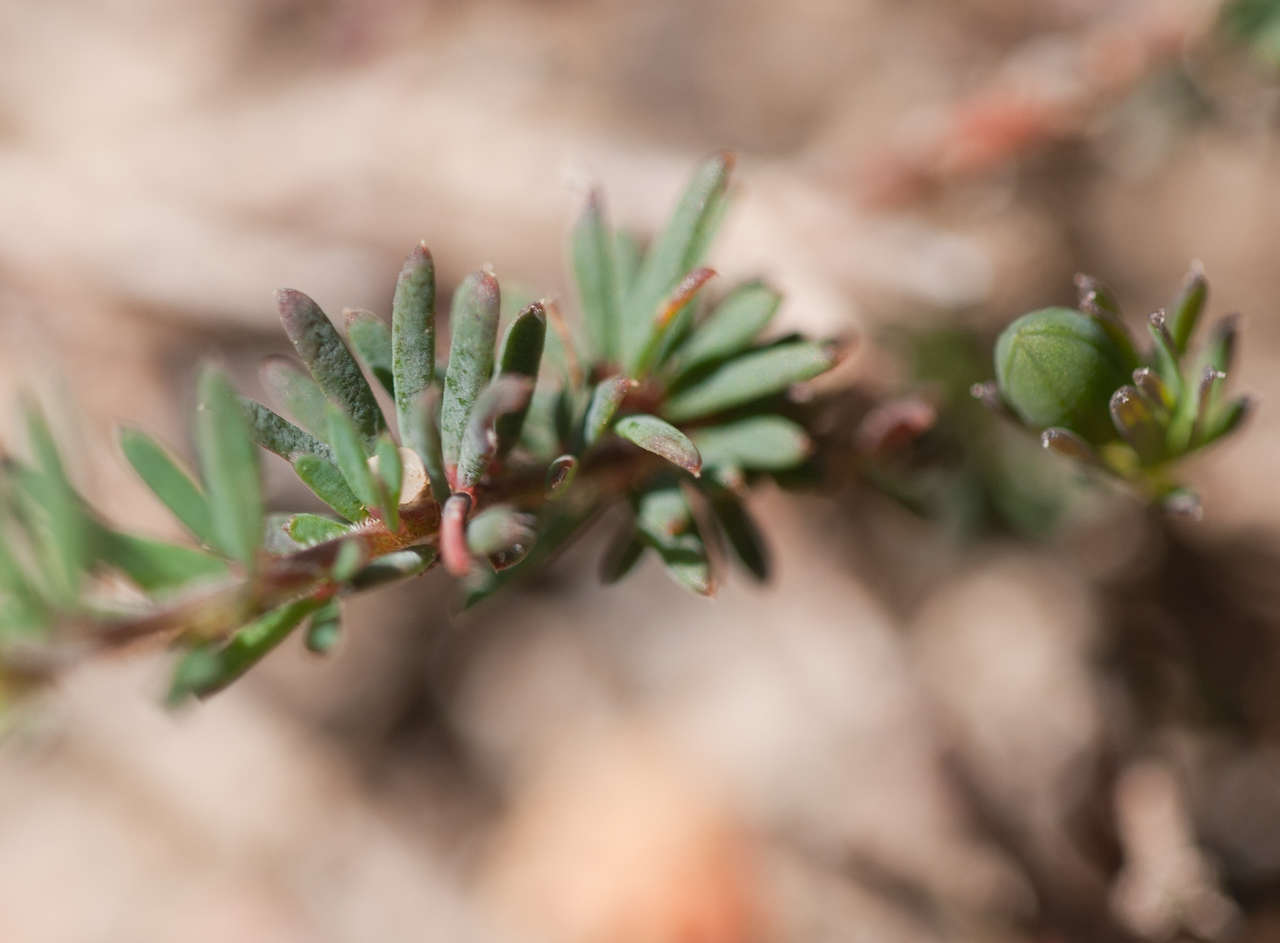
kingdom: Plantae
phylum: Tracheophyta
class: Magnoliopsida
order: Fabales
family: Fabaceae
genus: Gompholobium
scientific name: Gompholobium ecostatum
